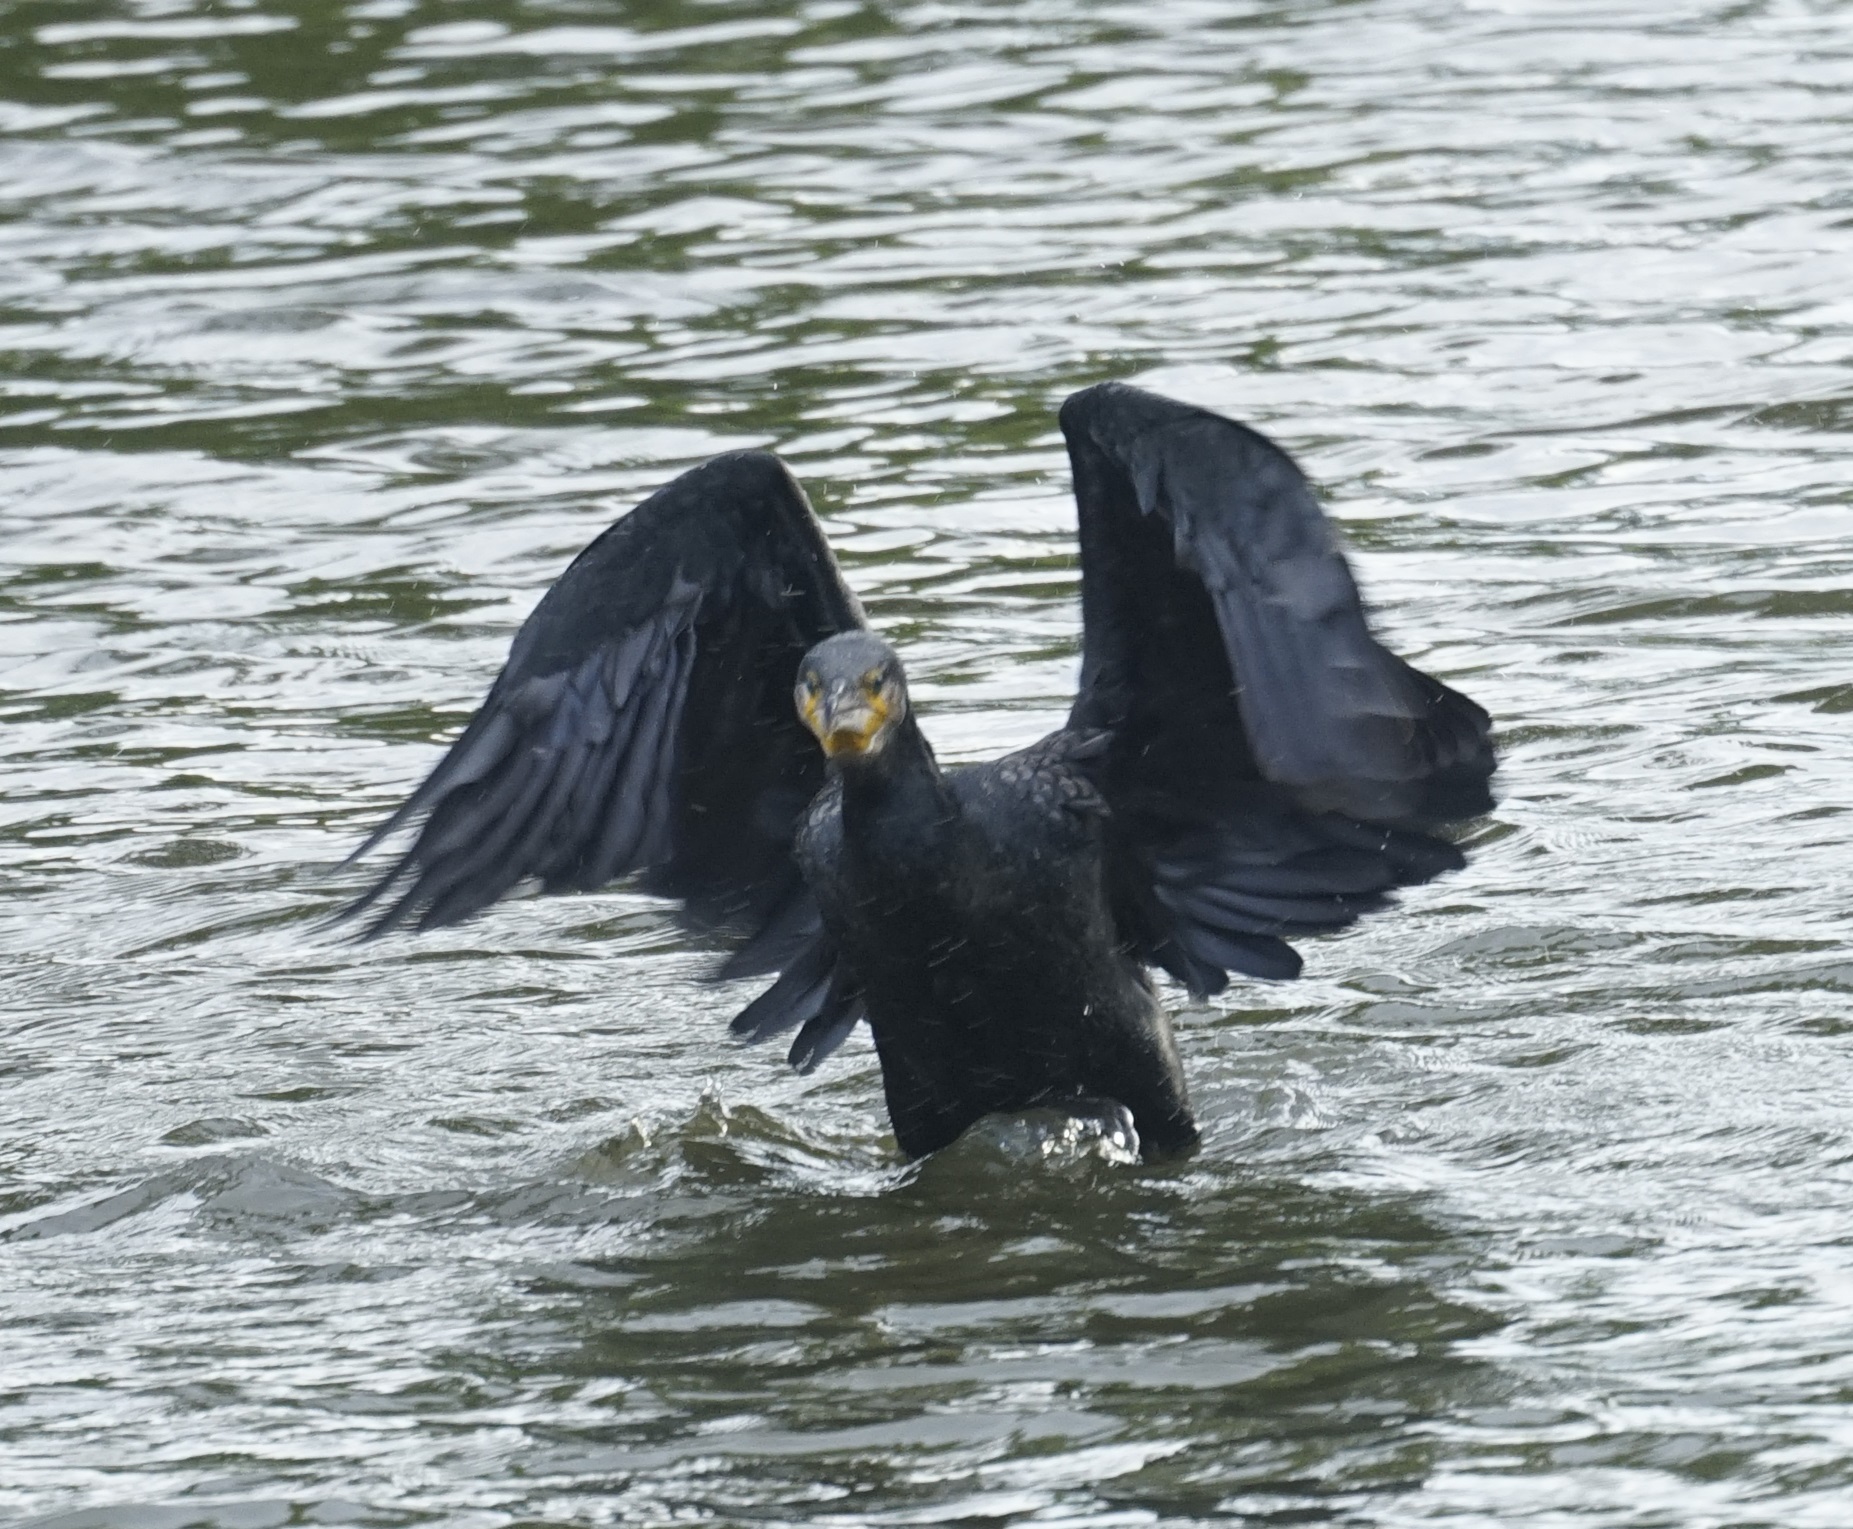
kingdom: Animalia
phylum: Chordata
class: Aves
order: Suliformes
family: Phalacrocoracidae
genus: Phalacrocorax
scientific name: Phalacrocorax carbo
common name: Great cormorant
